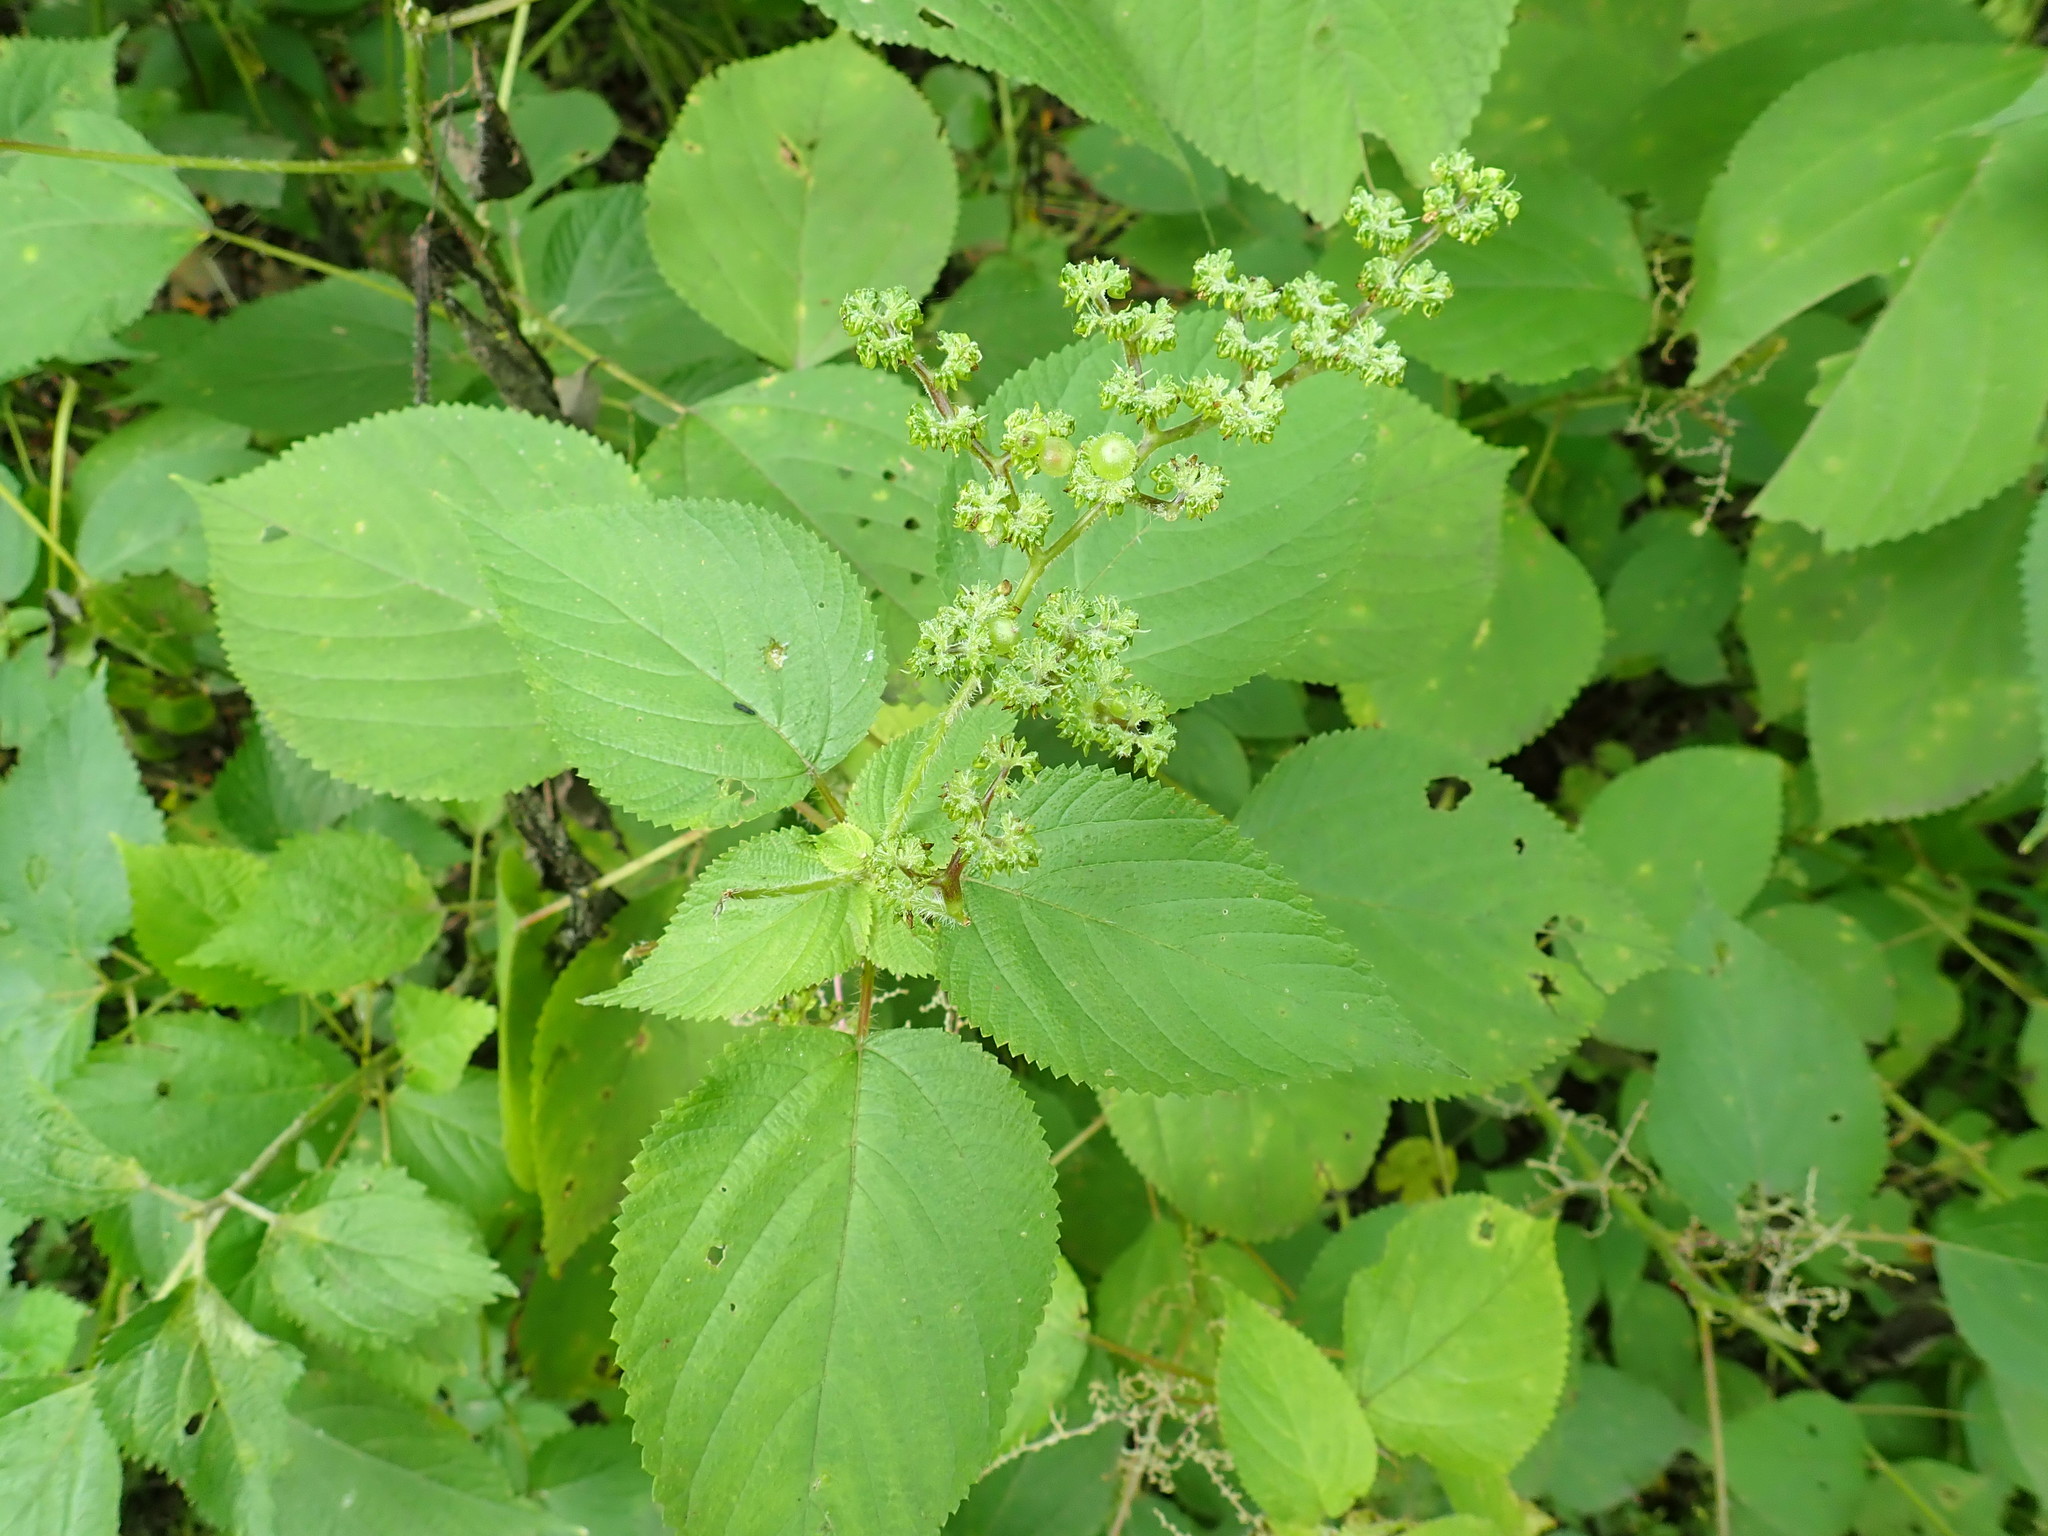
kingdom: Plantae
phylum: Tracheophyta
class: Magnoliopsida
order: Rosales
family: Urticaceae
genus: Laportea
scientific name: Laportea canadensis
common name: Canada nettle
